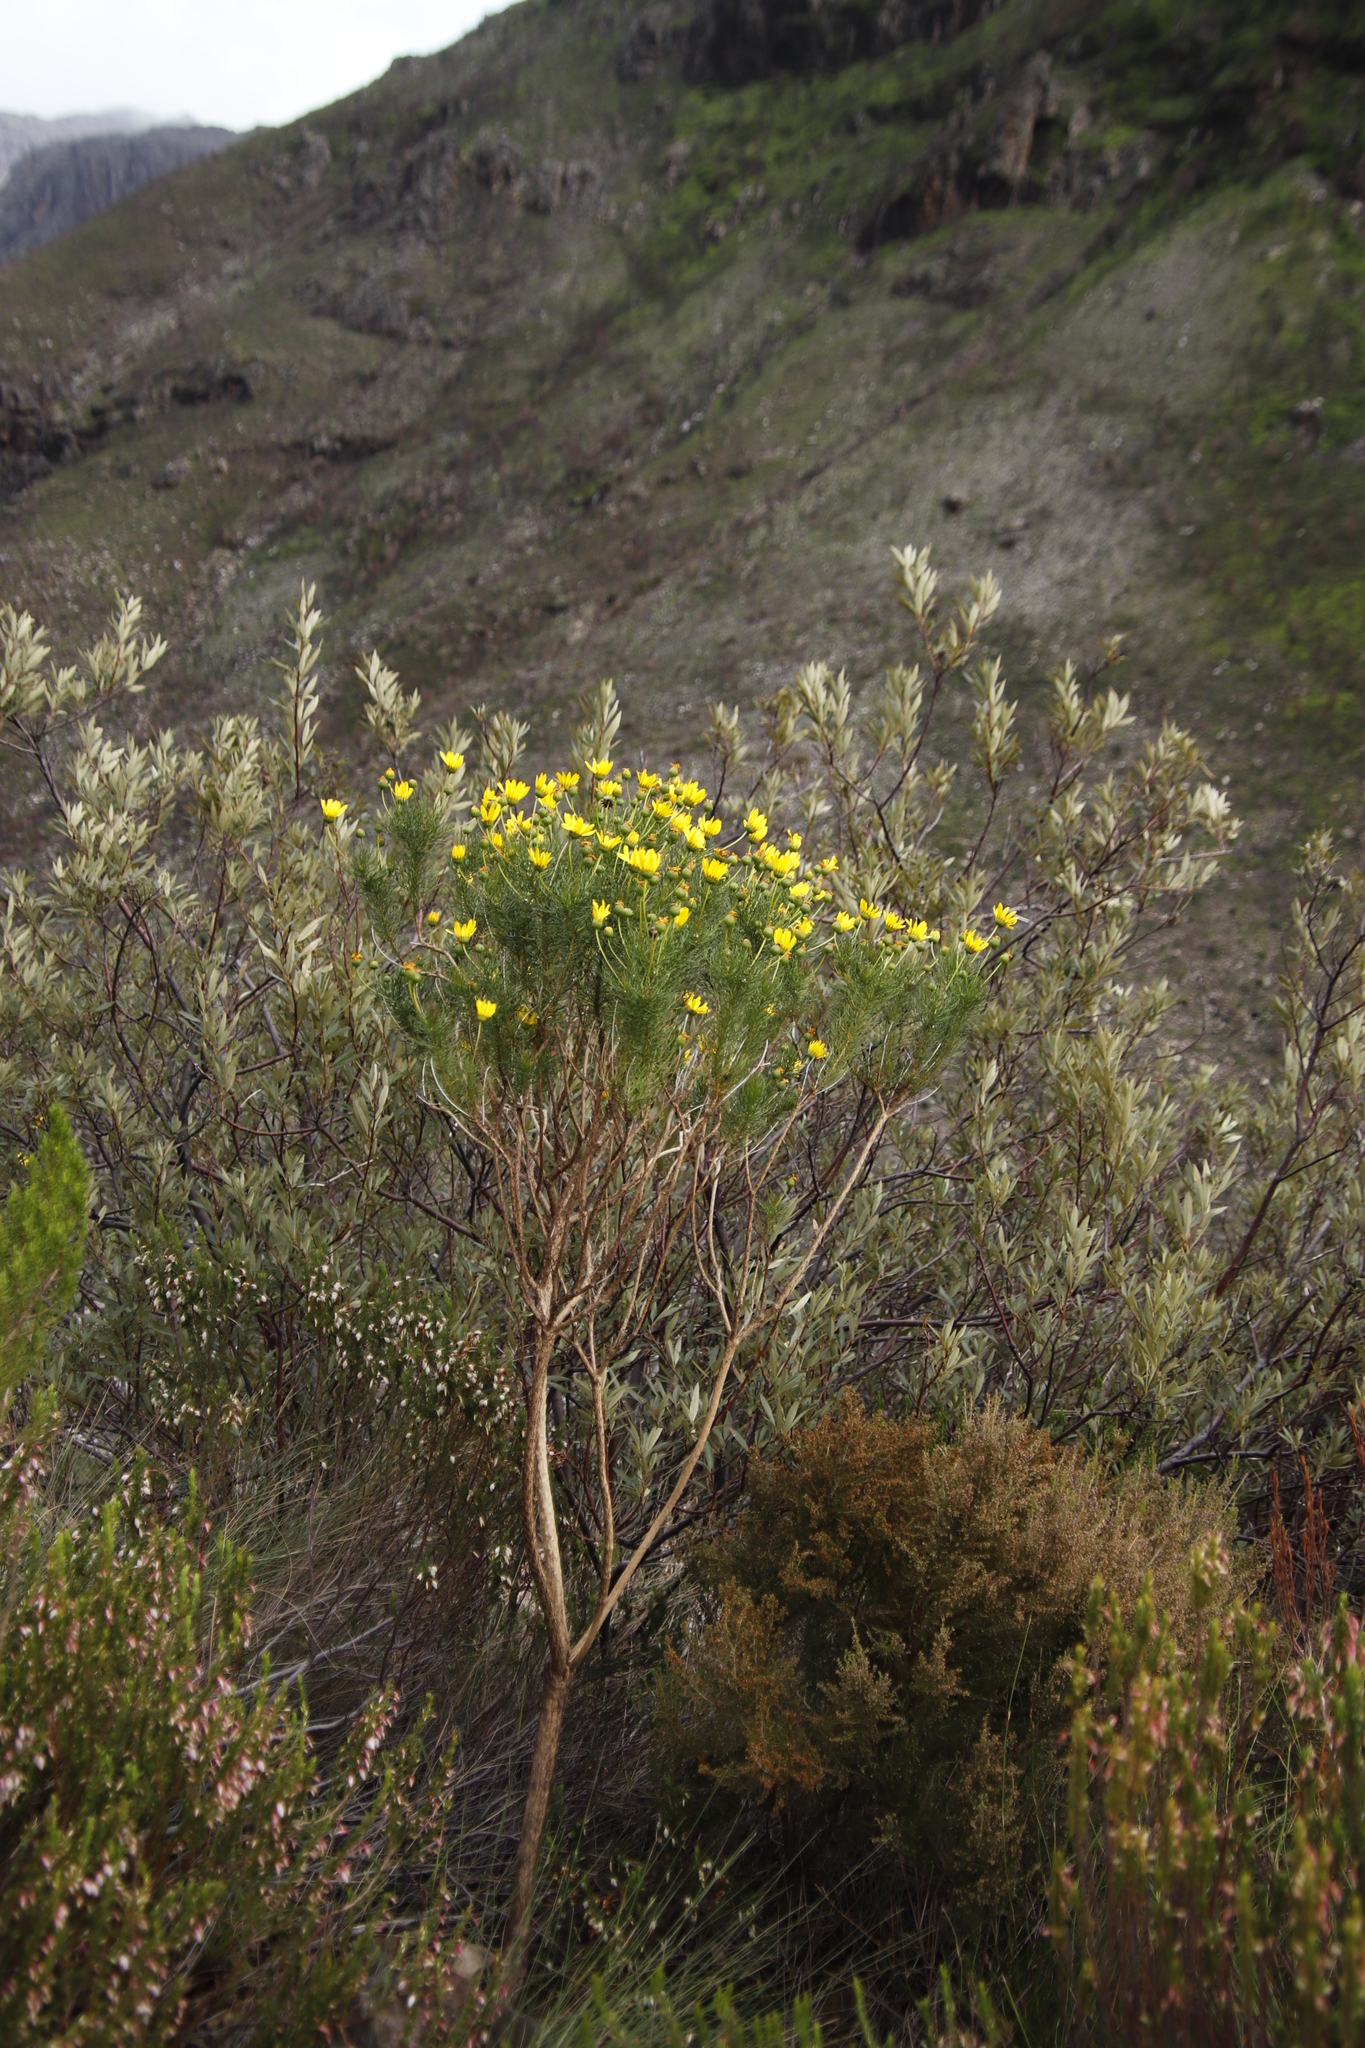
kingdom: Plantae
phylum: Tracheophyta
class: Magnoliopsida
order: Asterales
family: Asteraceae
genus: Euryops
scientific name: Euryops abrotanifolius
